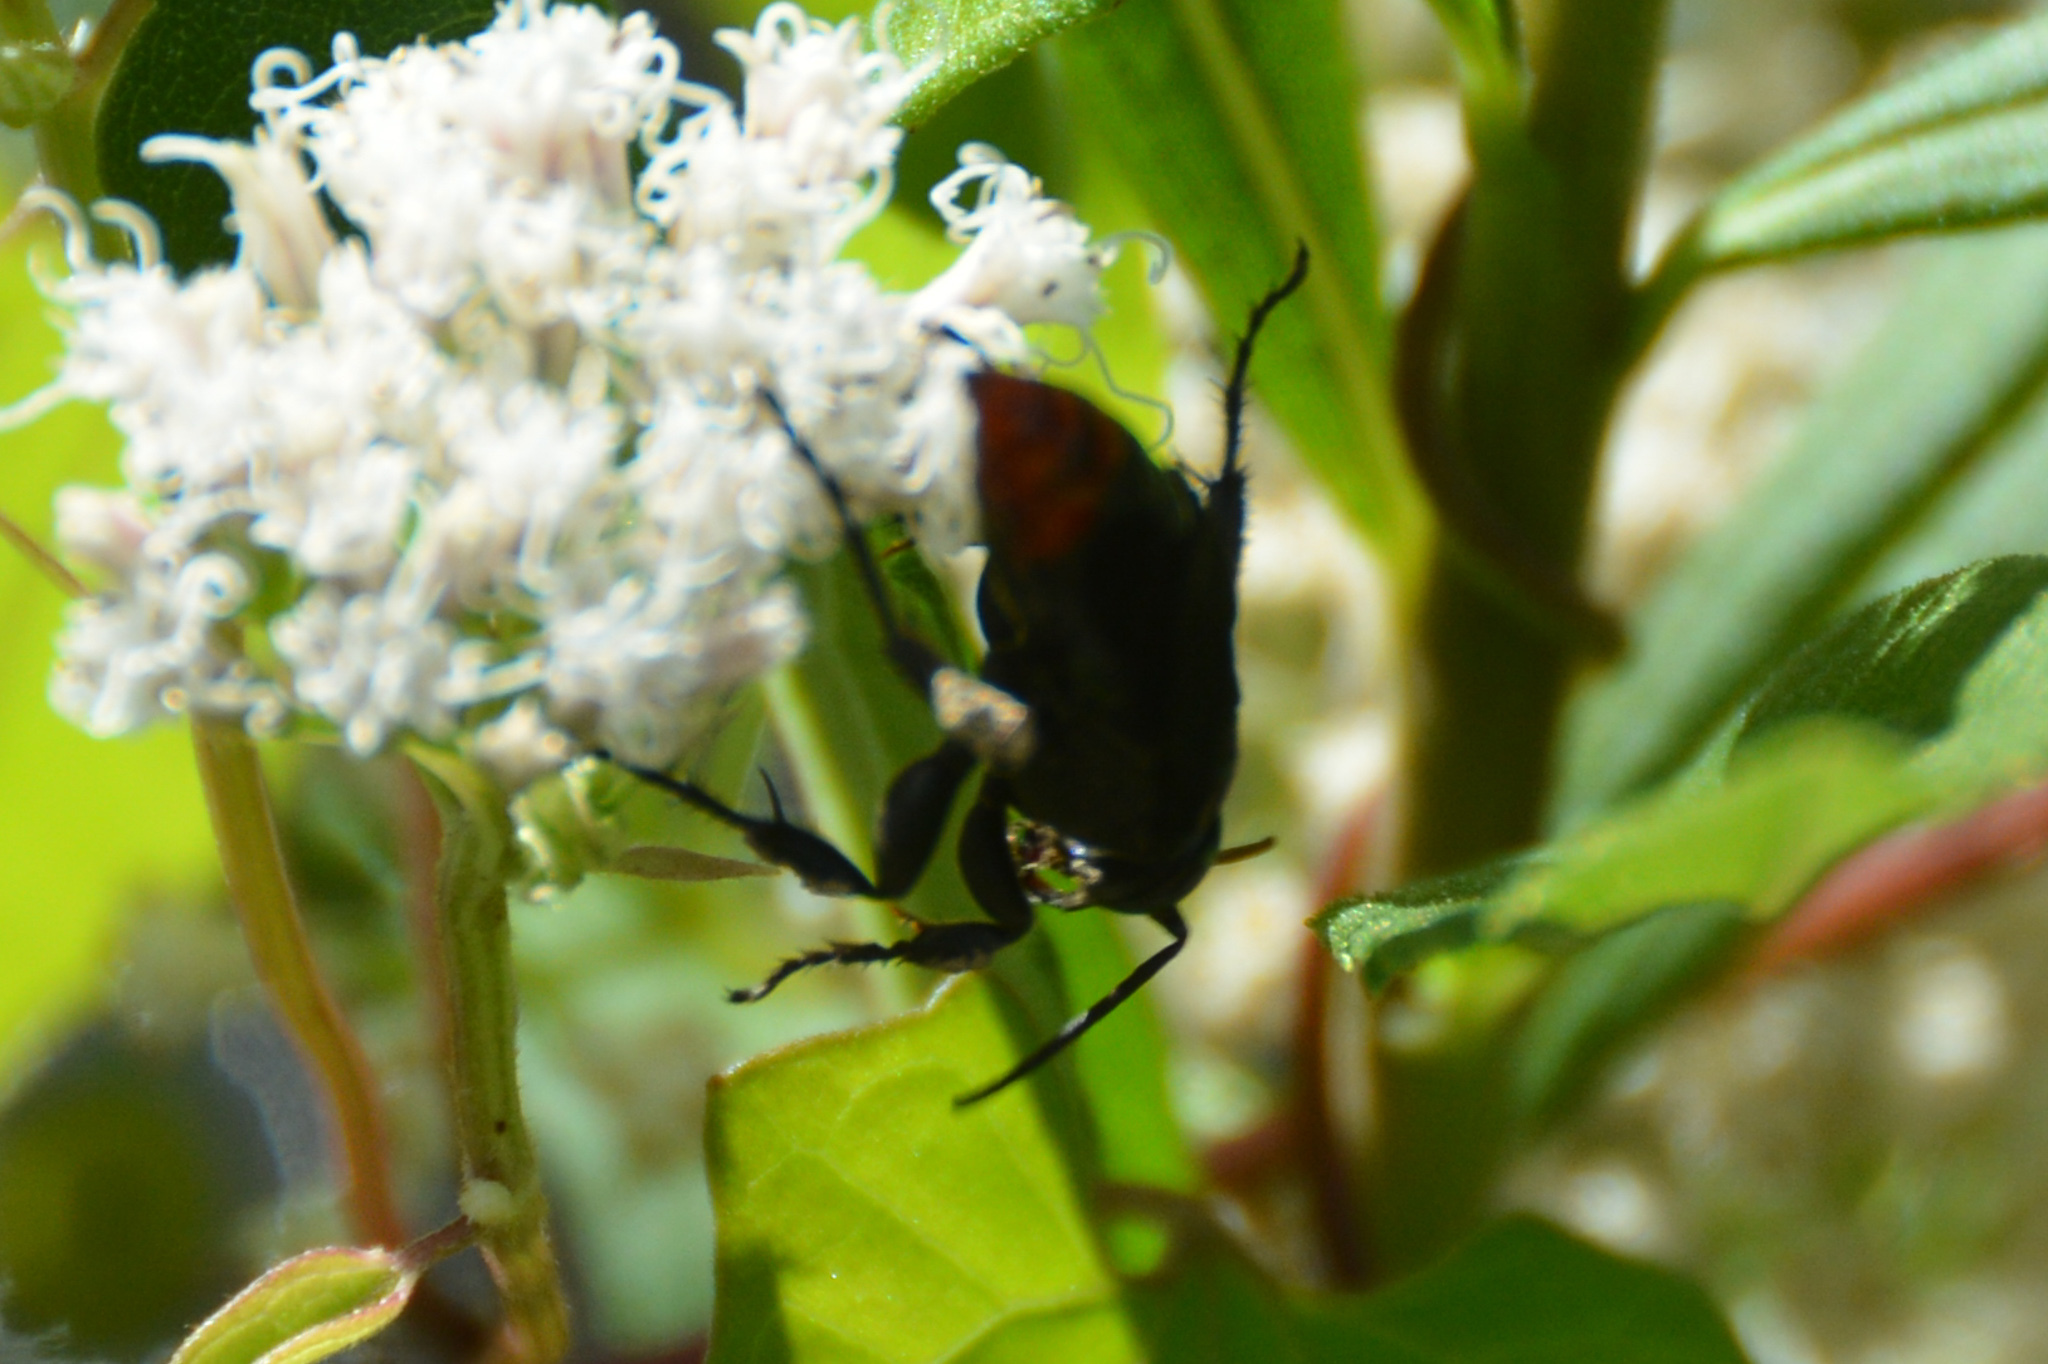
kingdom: Animalia
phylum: Arthropoda
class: Insecta
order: Hymenoptera
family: Crabronidae
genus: Larra
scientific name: Larra analis
